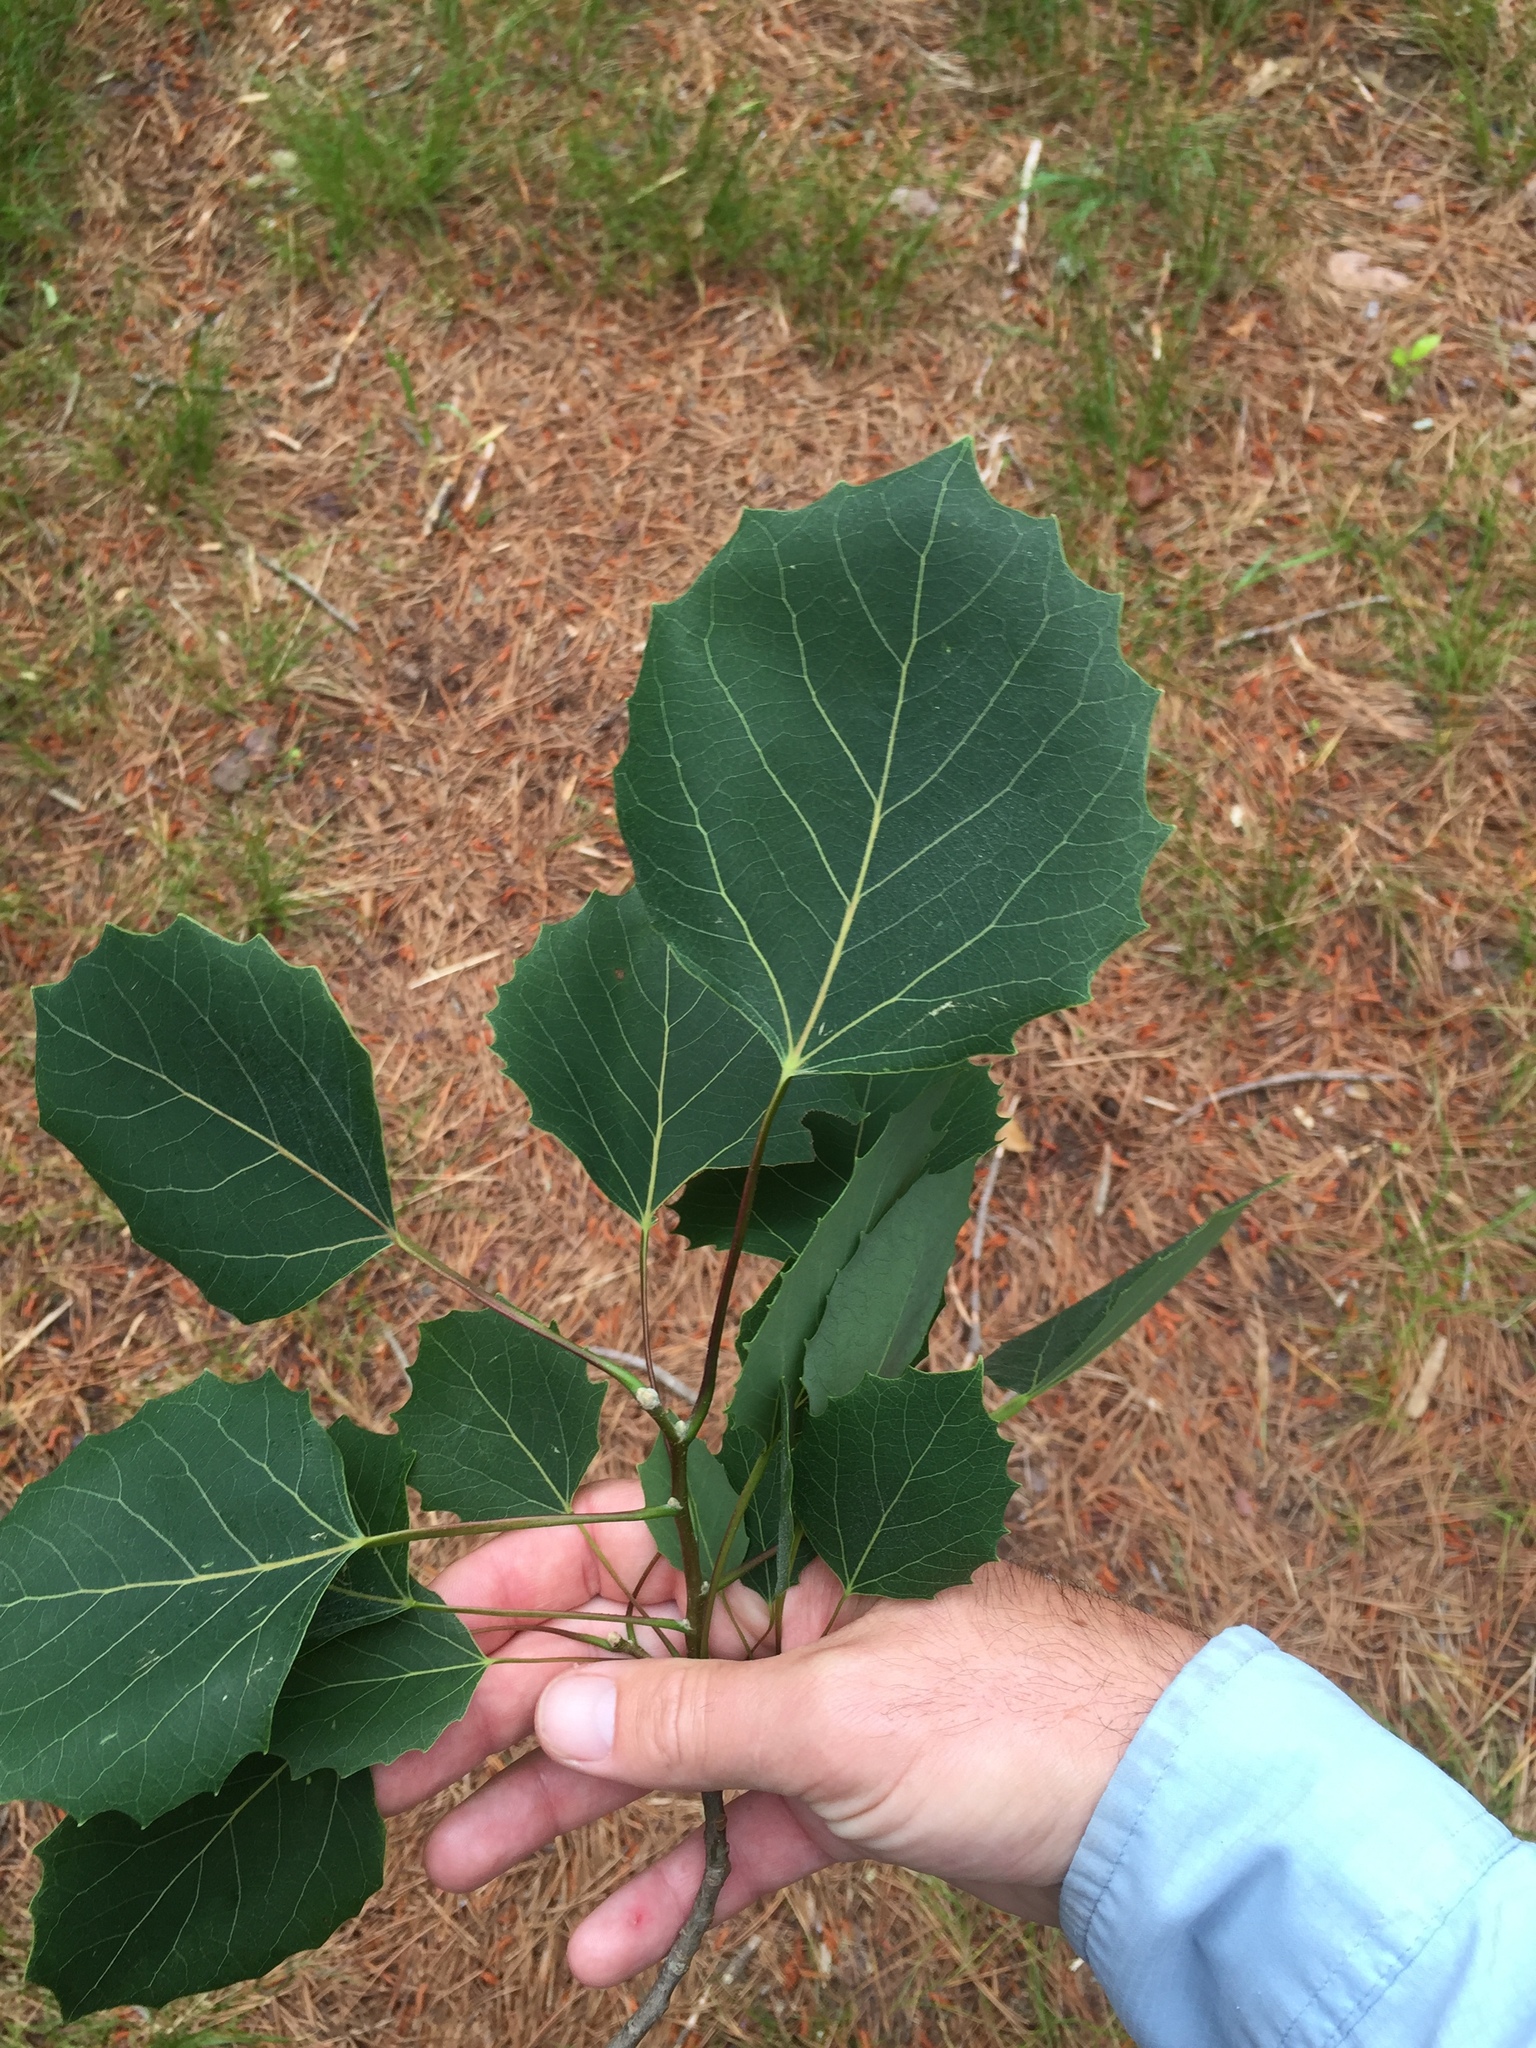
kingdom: Plantae
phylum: Tracheophyta
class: Magnoliopsida
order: Malpighiales
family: Salicaceae
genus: Populus
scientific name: Populus grandidentata
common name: Bigtooth aspen
